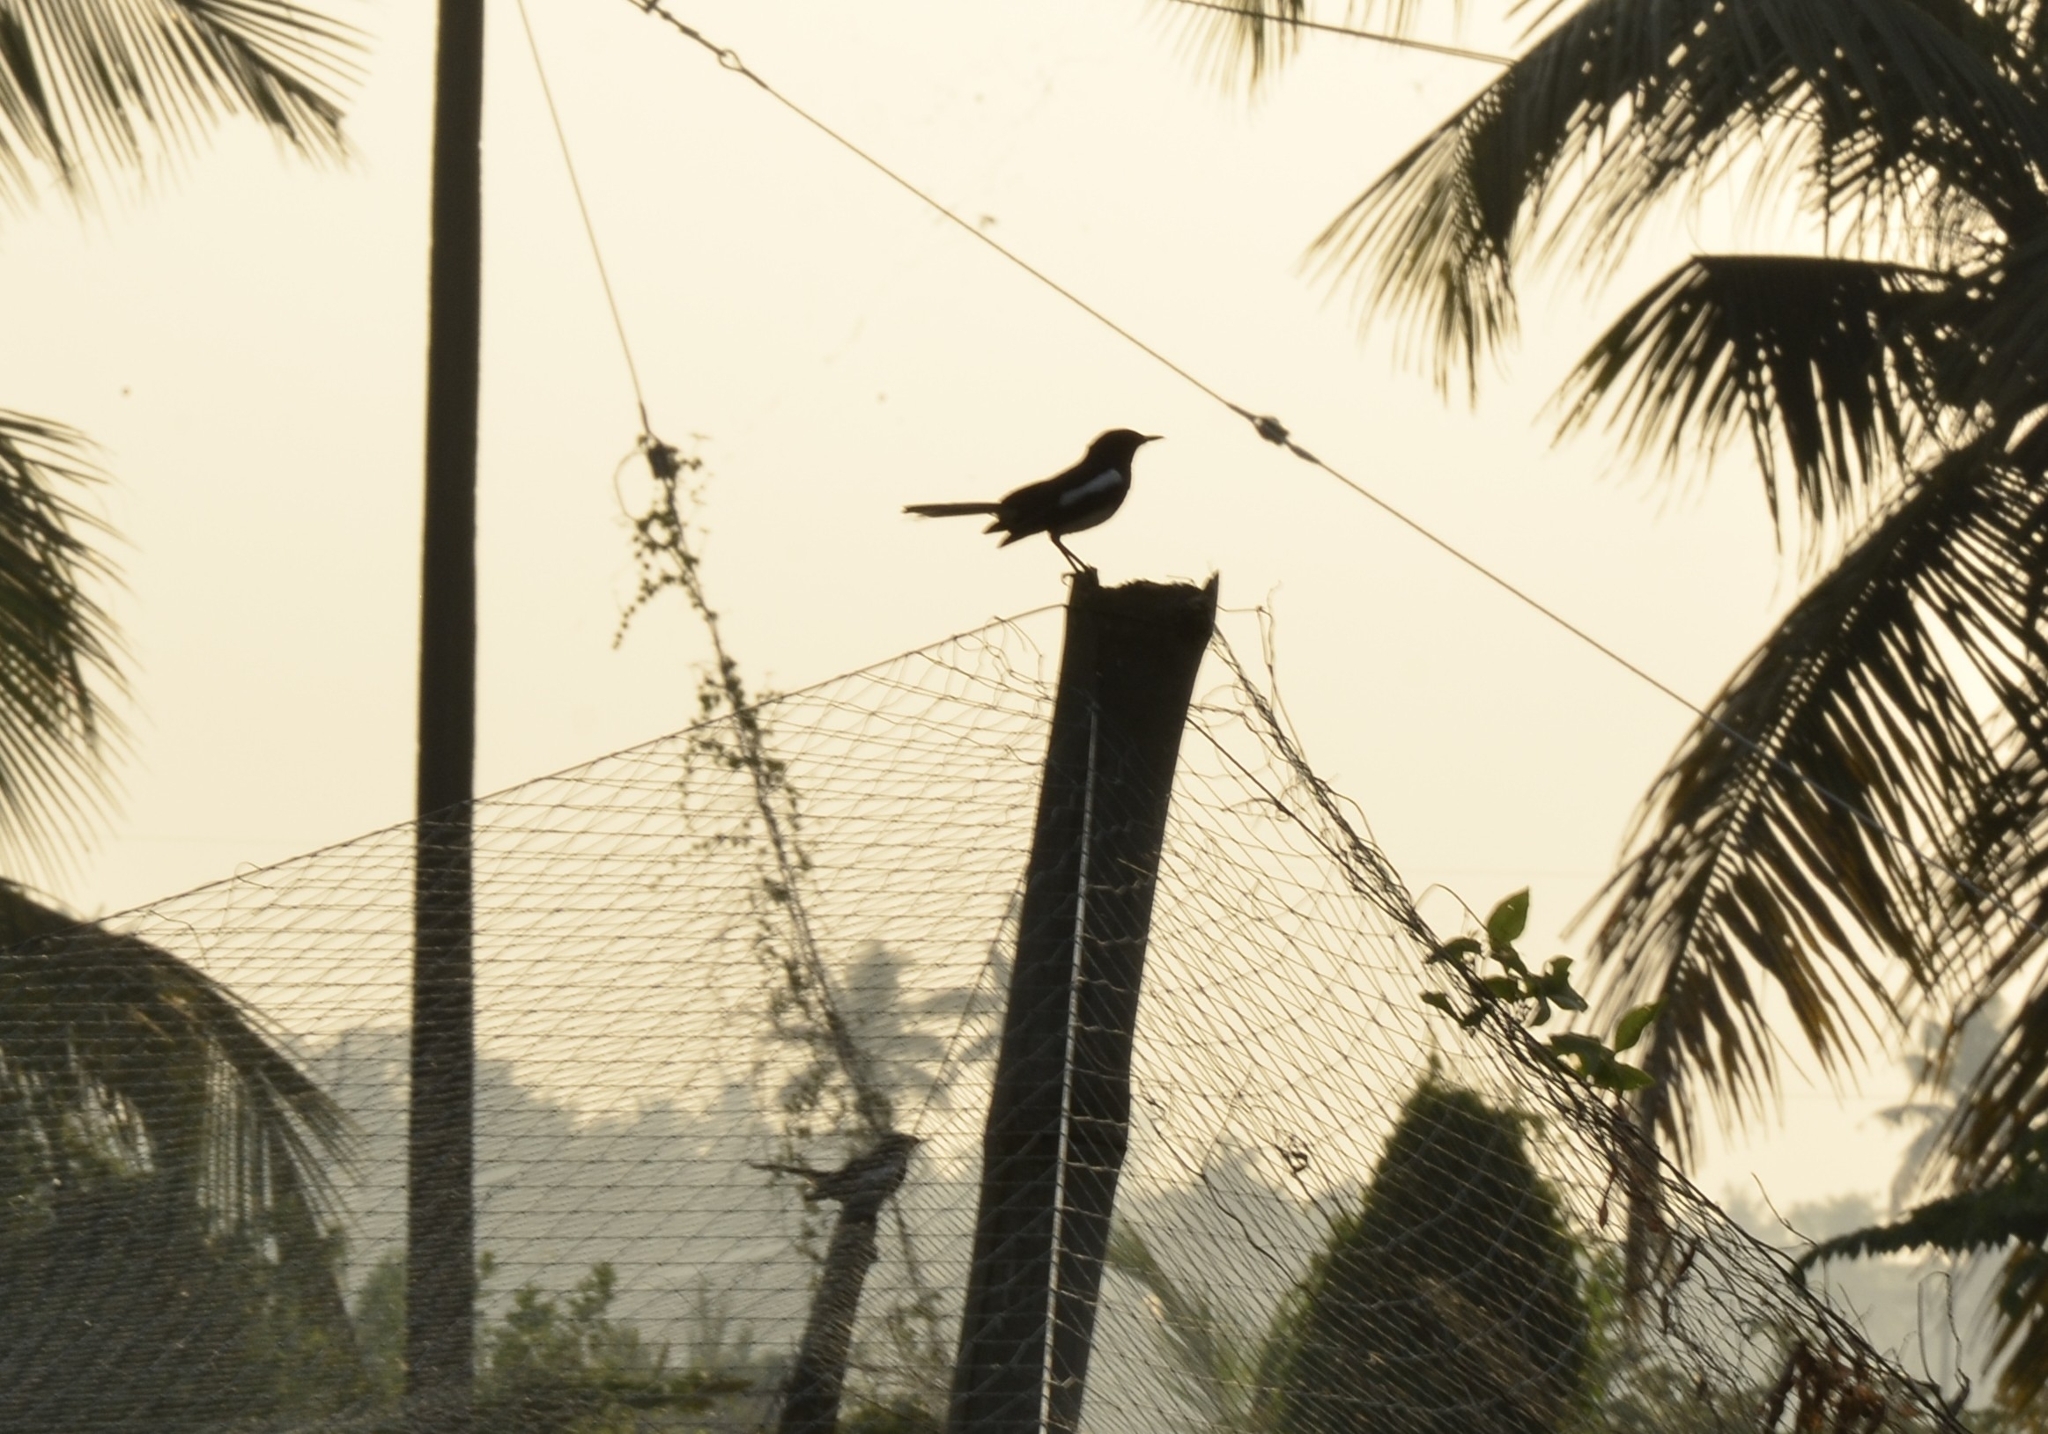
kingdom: Animalia
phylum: Chordata
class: Aves
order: Passeriformes
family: Muscicapidae
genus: Copsychus
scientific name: Copsychus saularis
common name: Oriental magpie-robin
